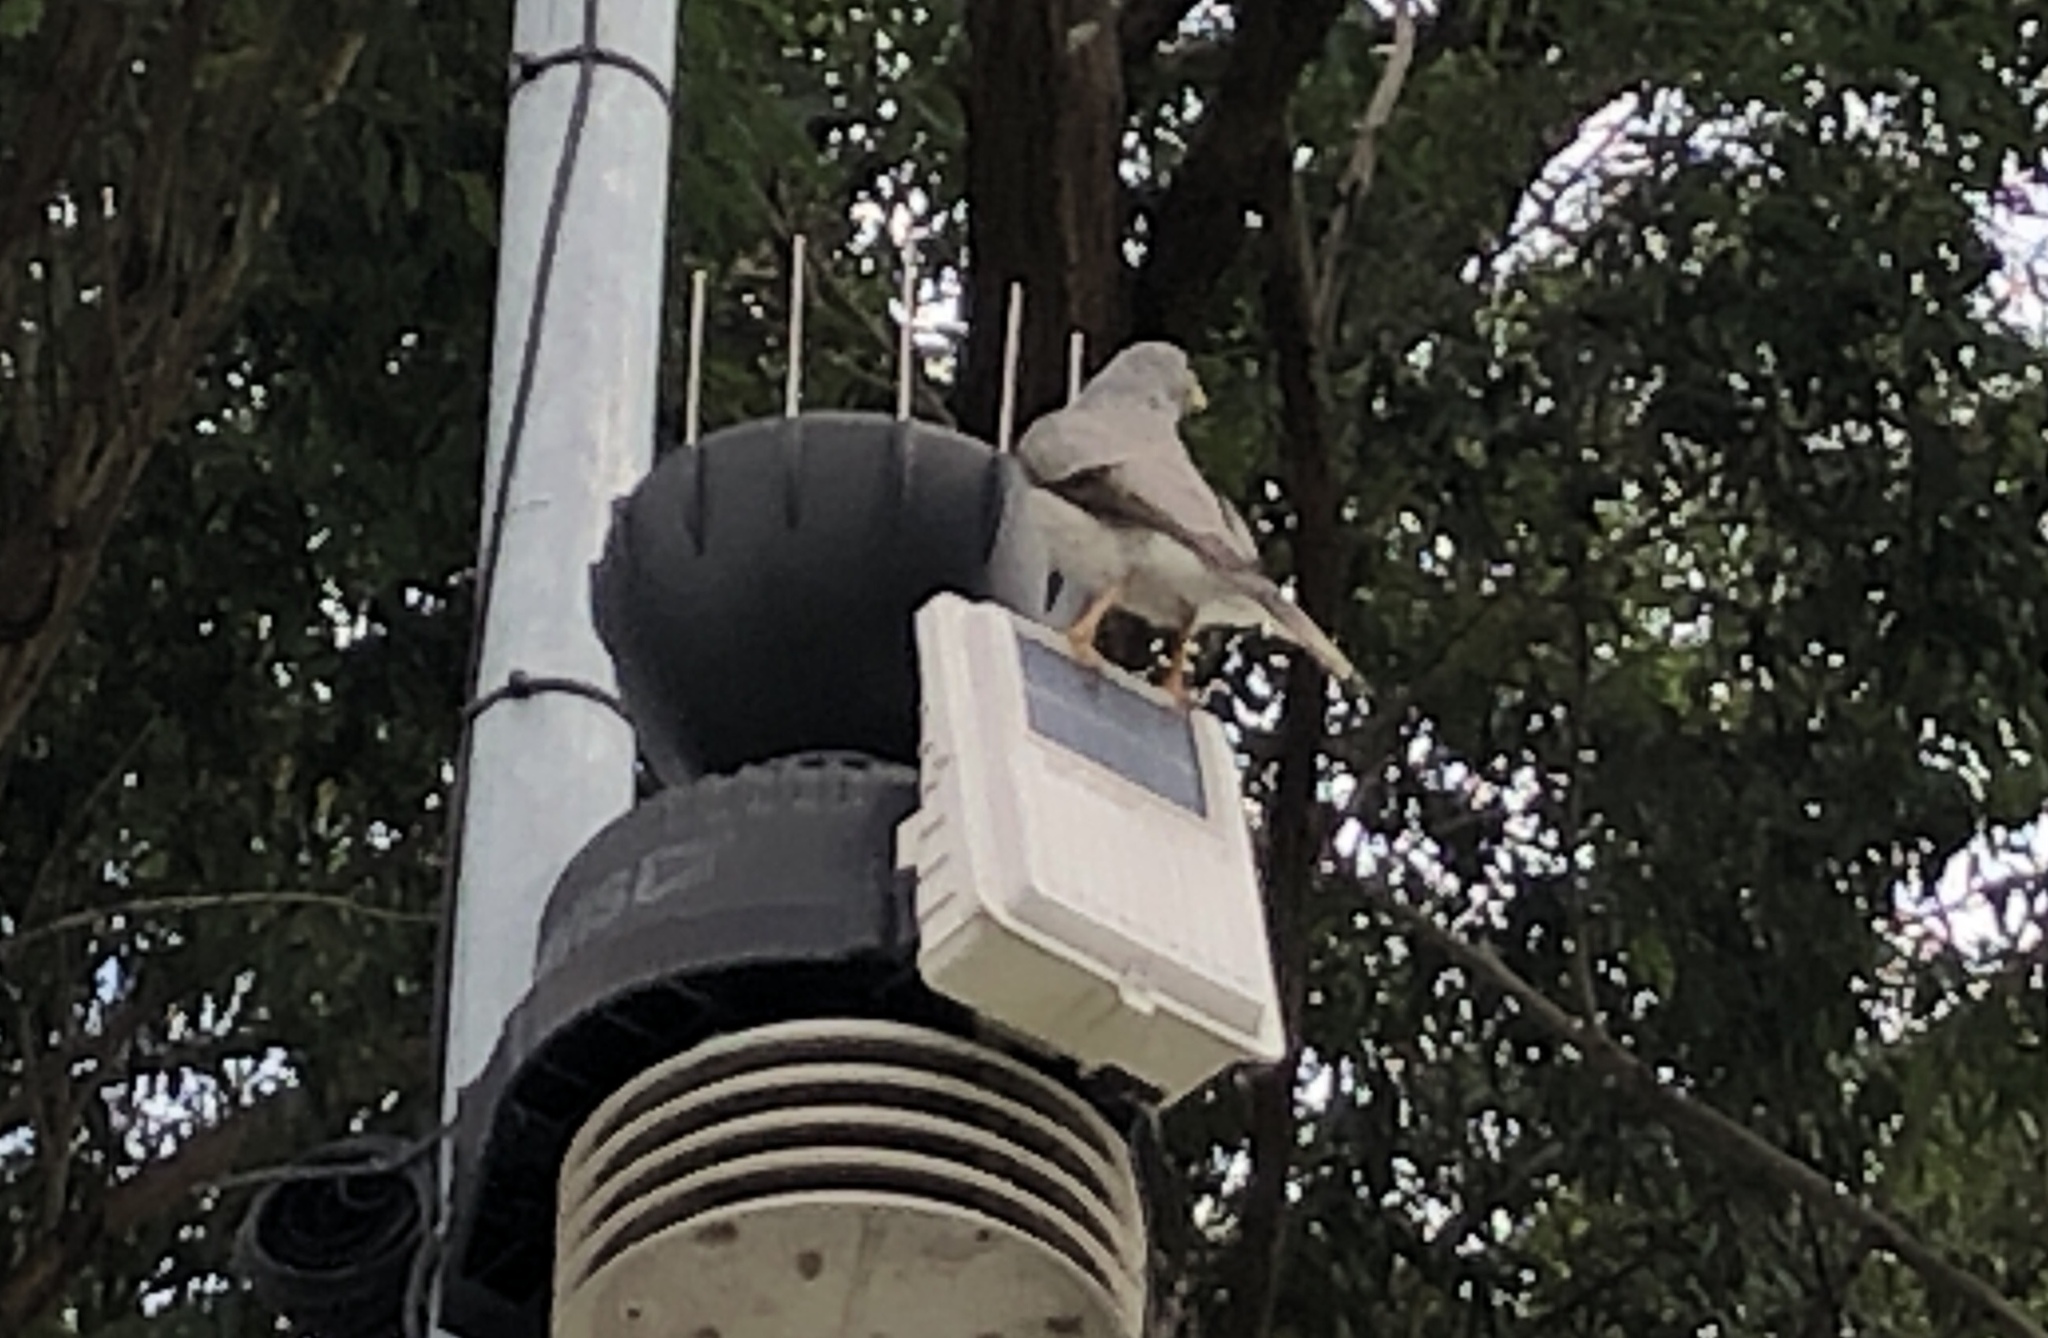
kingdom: Animalia
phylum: Chordata
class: Aves
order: Passeriformes
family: Meliphagidae
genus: Manorina
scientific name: Manorina melanocephala
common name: Noisy miner
